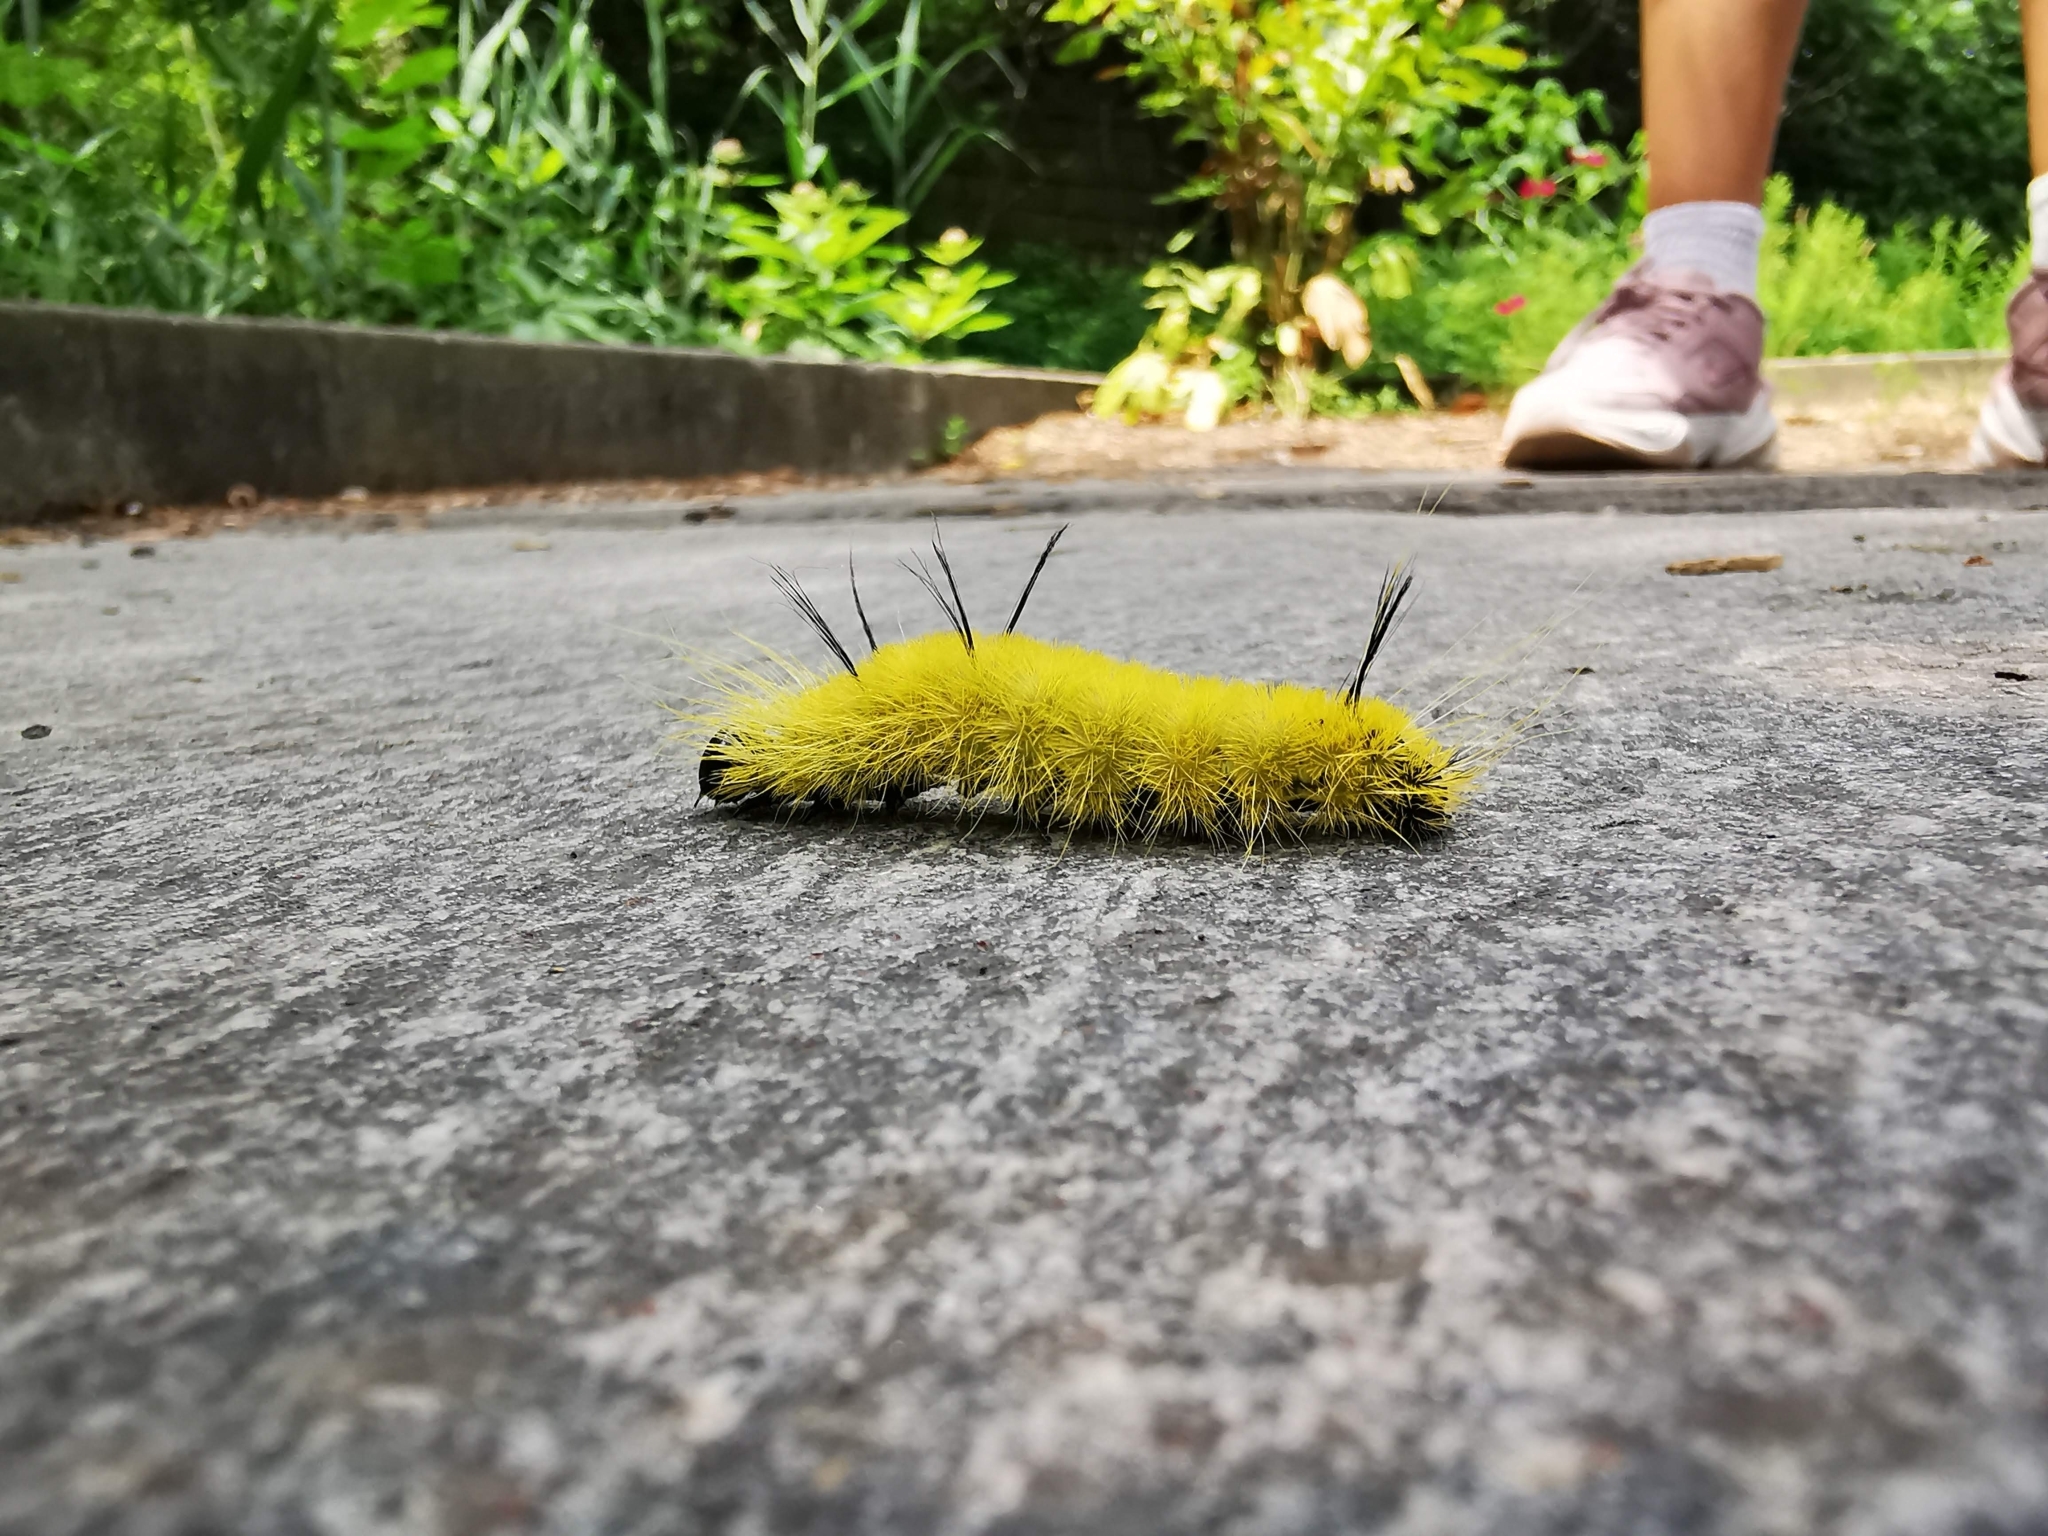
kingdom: Animalia
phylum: Arthropoda
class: Insecta
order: Lepidoptera
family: Noctuidae
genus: Acronicta
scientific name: Acronicta americana
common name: American dagger
